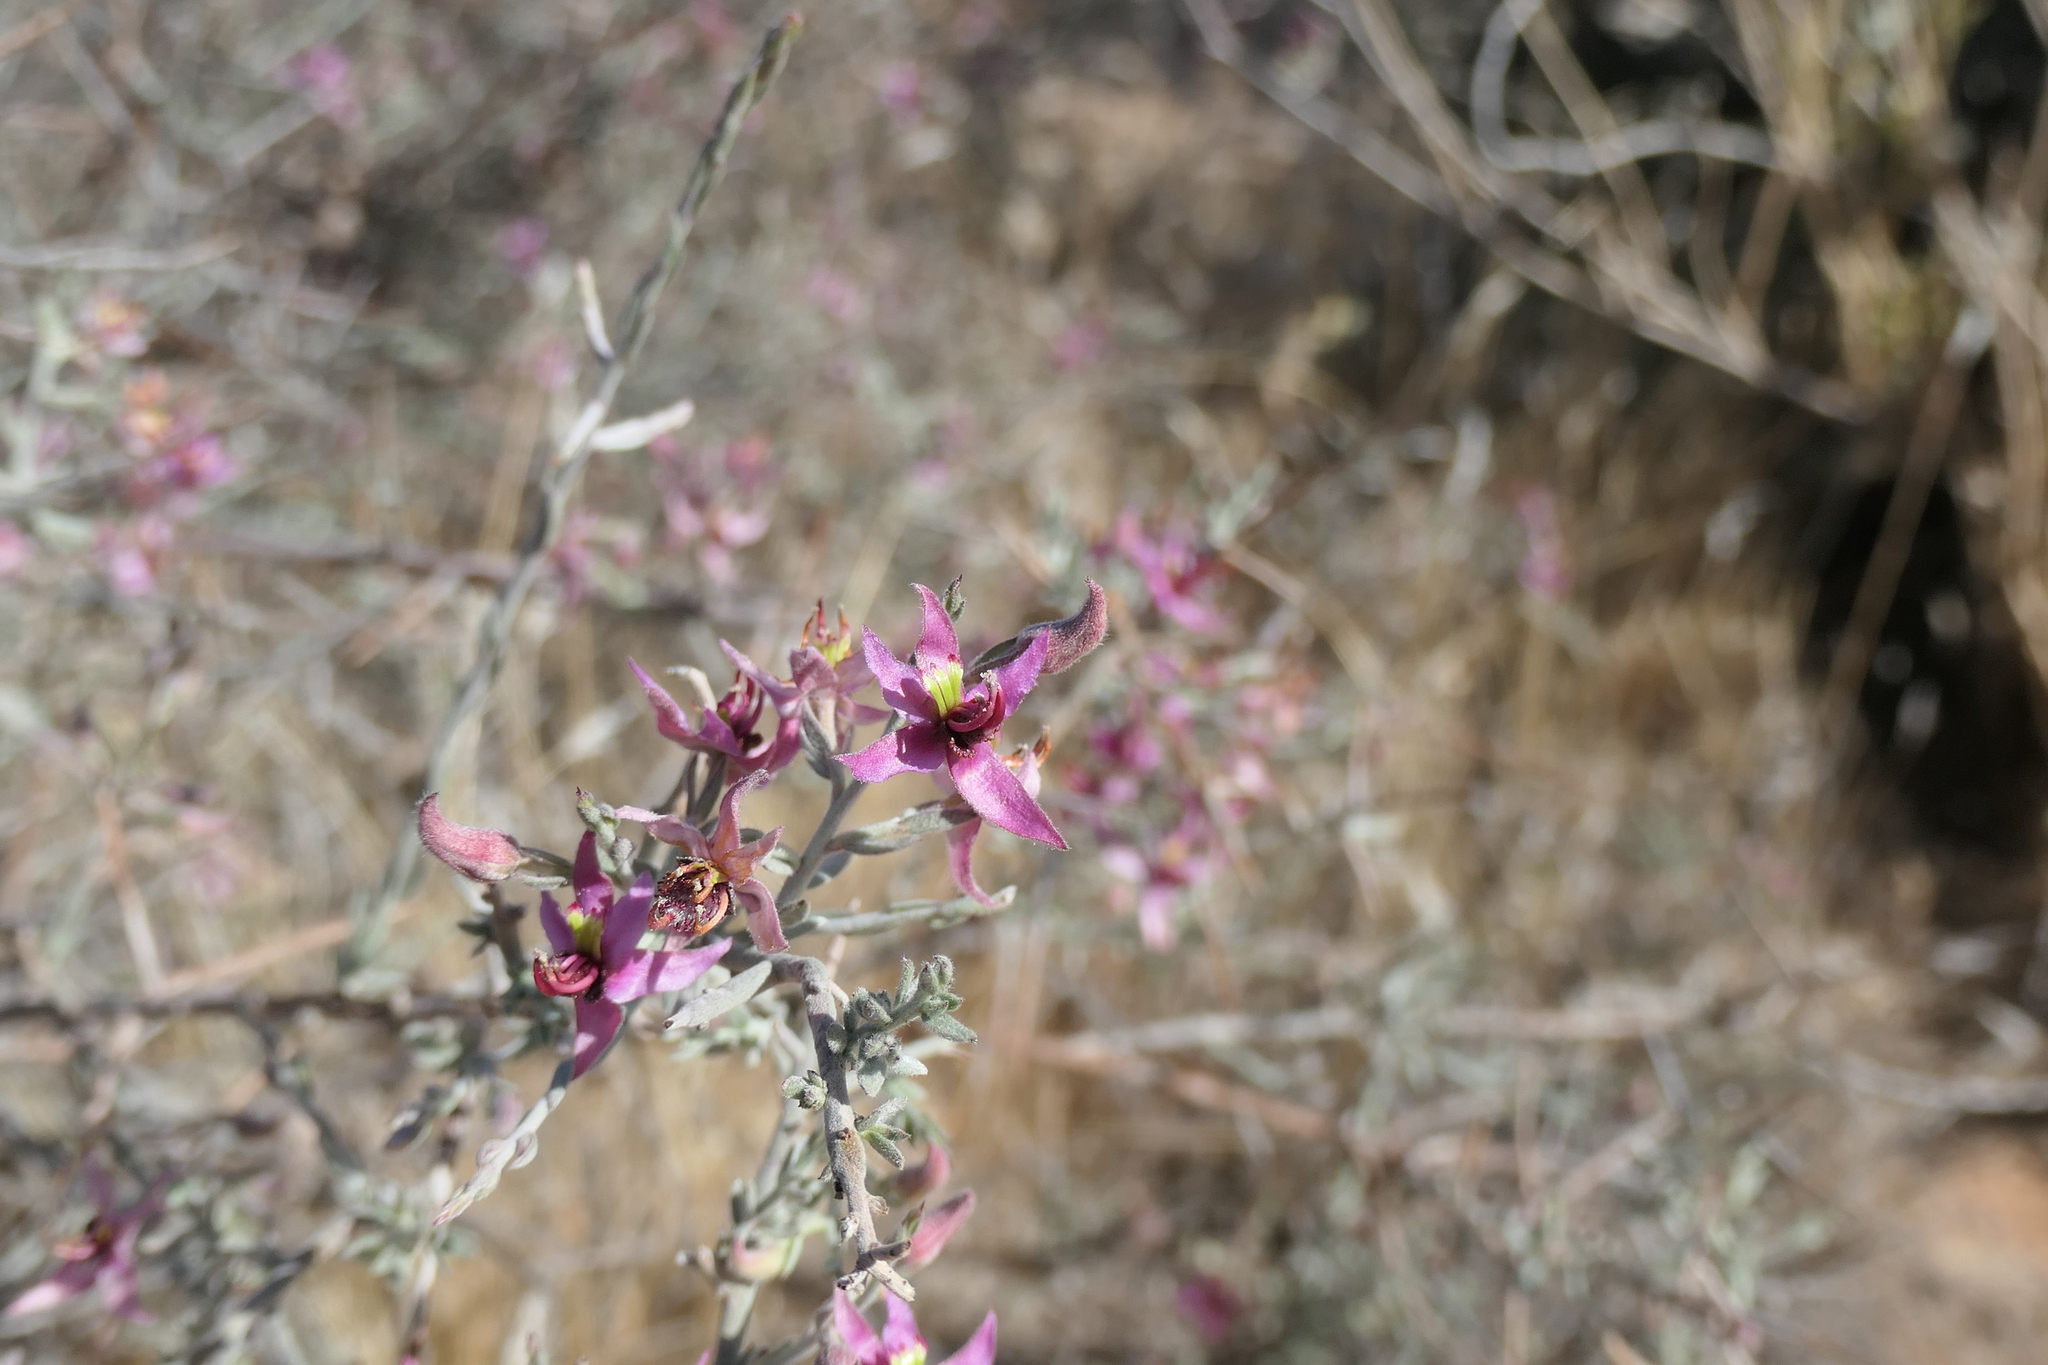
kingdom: Plantae
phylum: Tracheophyta
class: Magnoliopsida
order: Zygophyllales
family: Krameriaceae
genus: Krameria
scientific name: Krameria bicolor
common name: White ratany
